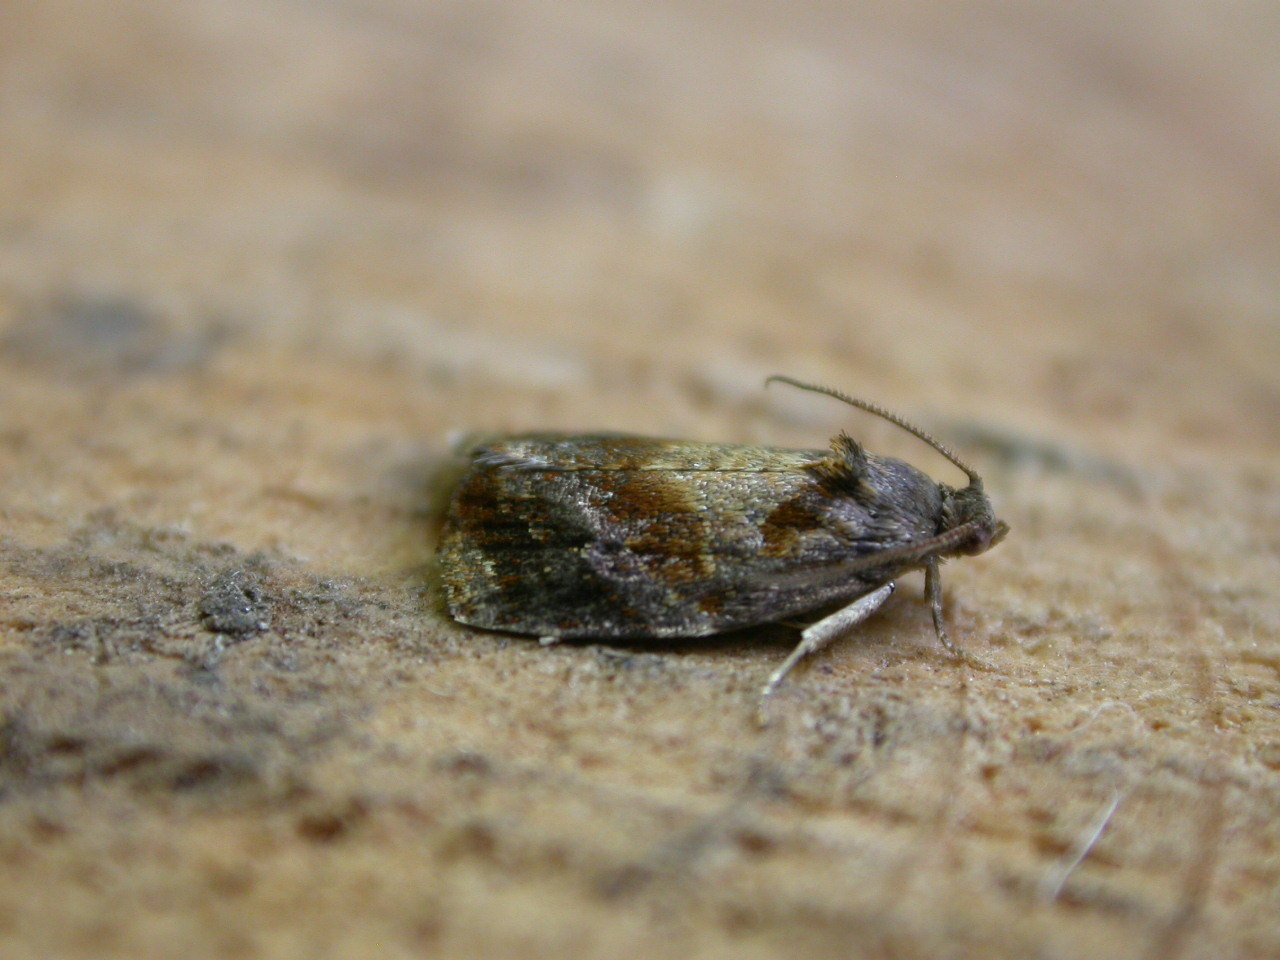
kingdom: Animalia
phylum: Arthropoda
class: Insecta
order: Lepidoptera
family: Tortricidae
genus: Ditula
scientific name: Ditula angustiorana
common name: Red-barred tortrix
